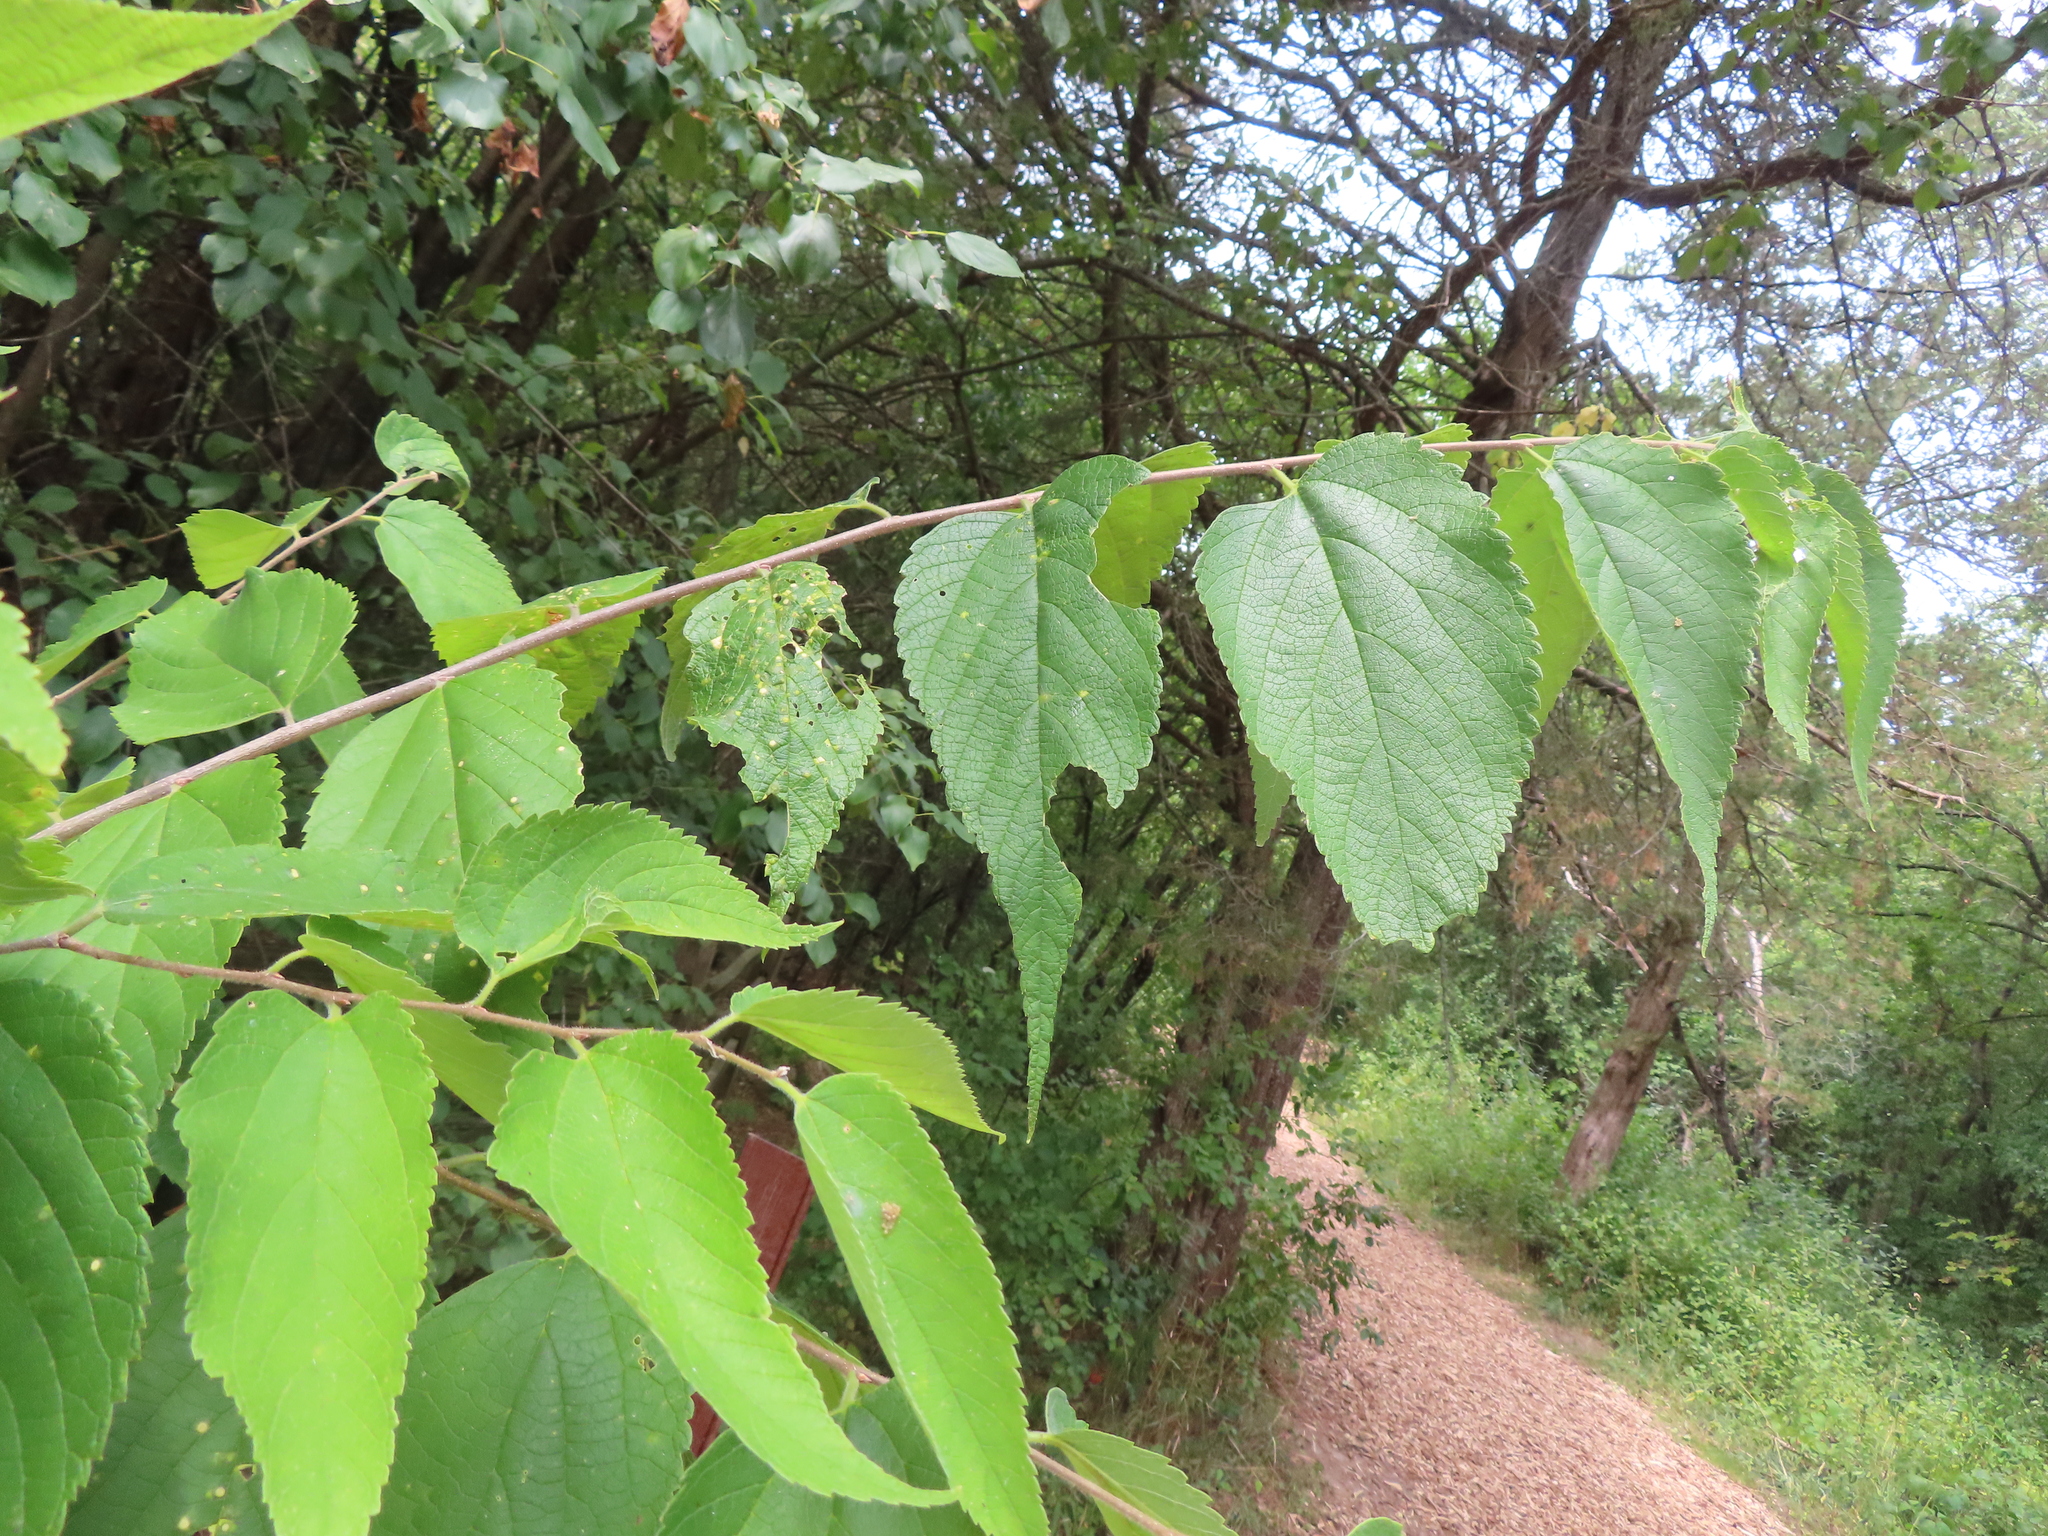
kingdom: Plantae
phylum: Tracheophyta
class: Magnoliopsida
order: Rosales
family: Cannabaceae
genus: Celtis
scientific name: Celtis occidentalis
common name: Common hackberry
